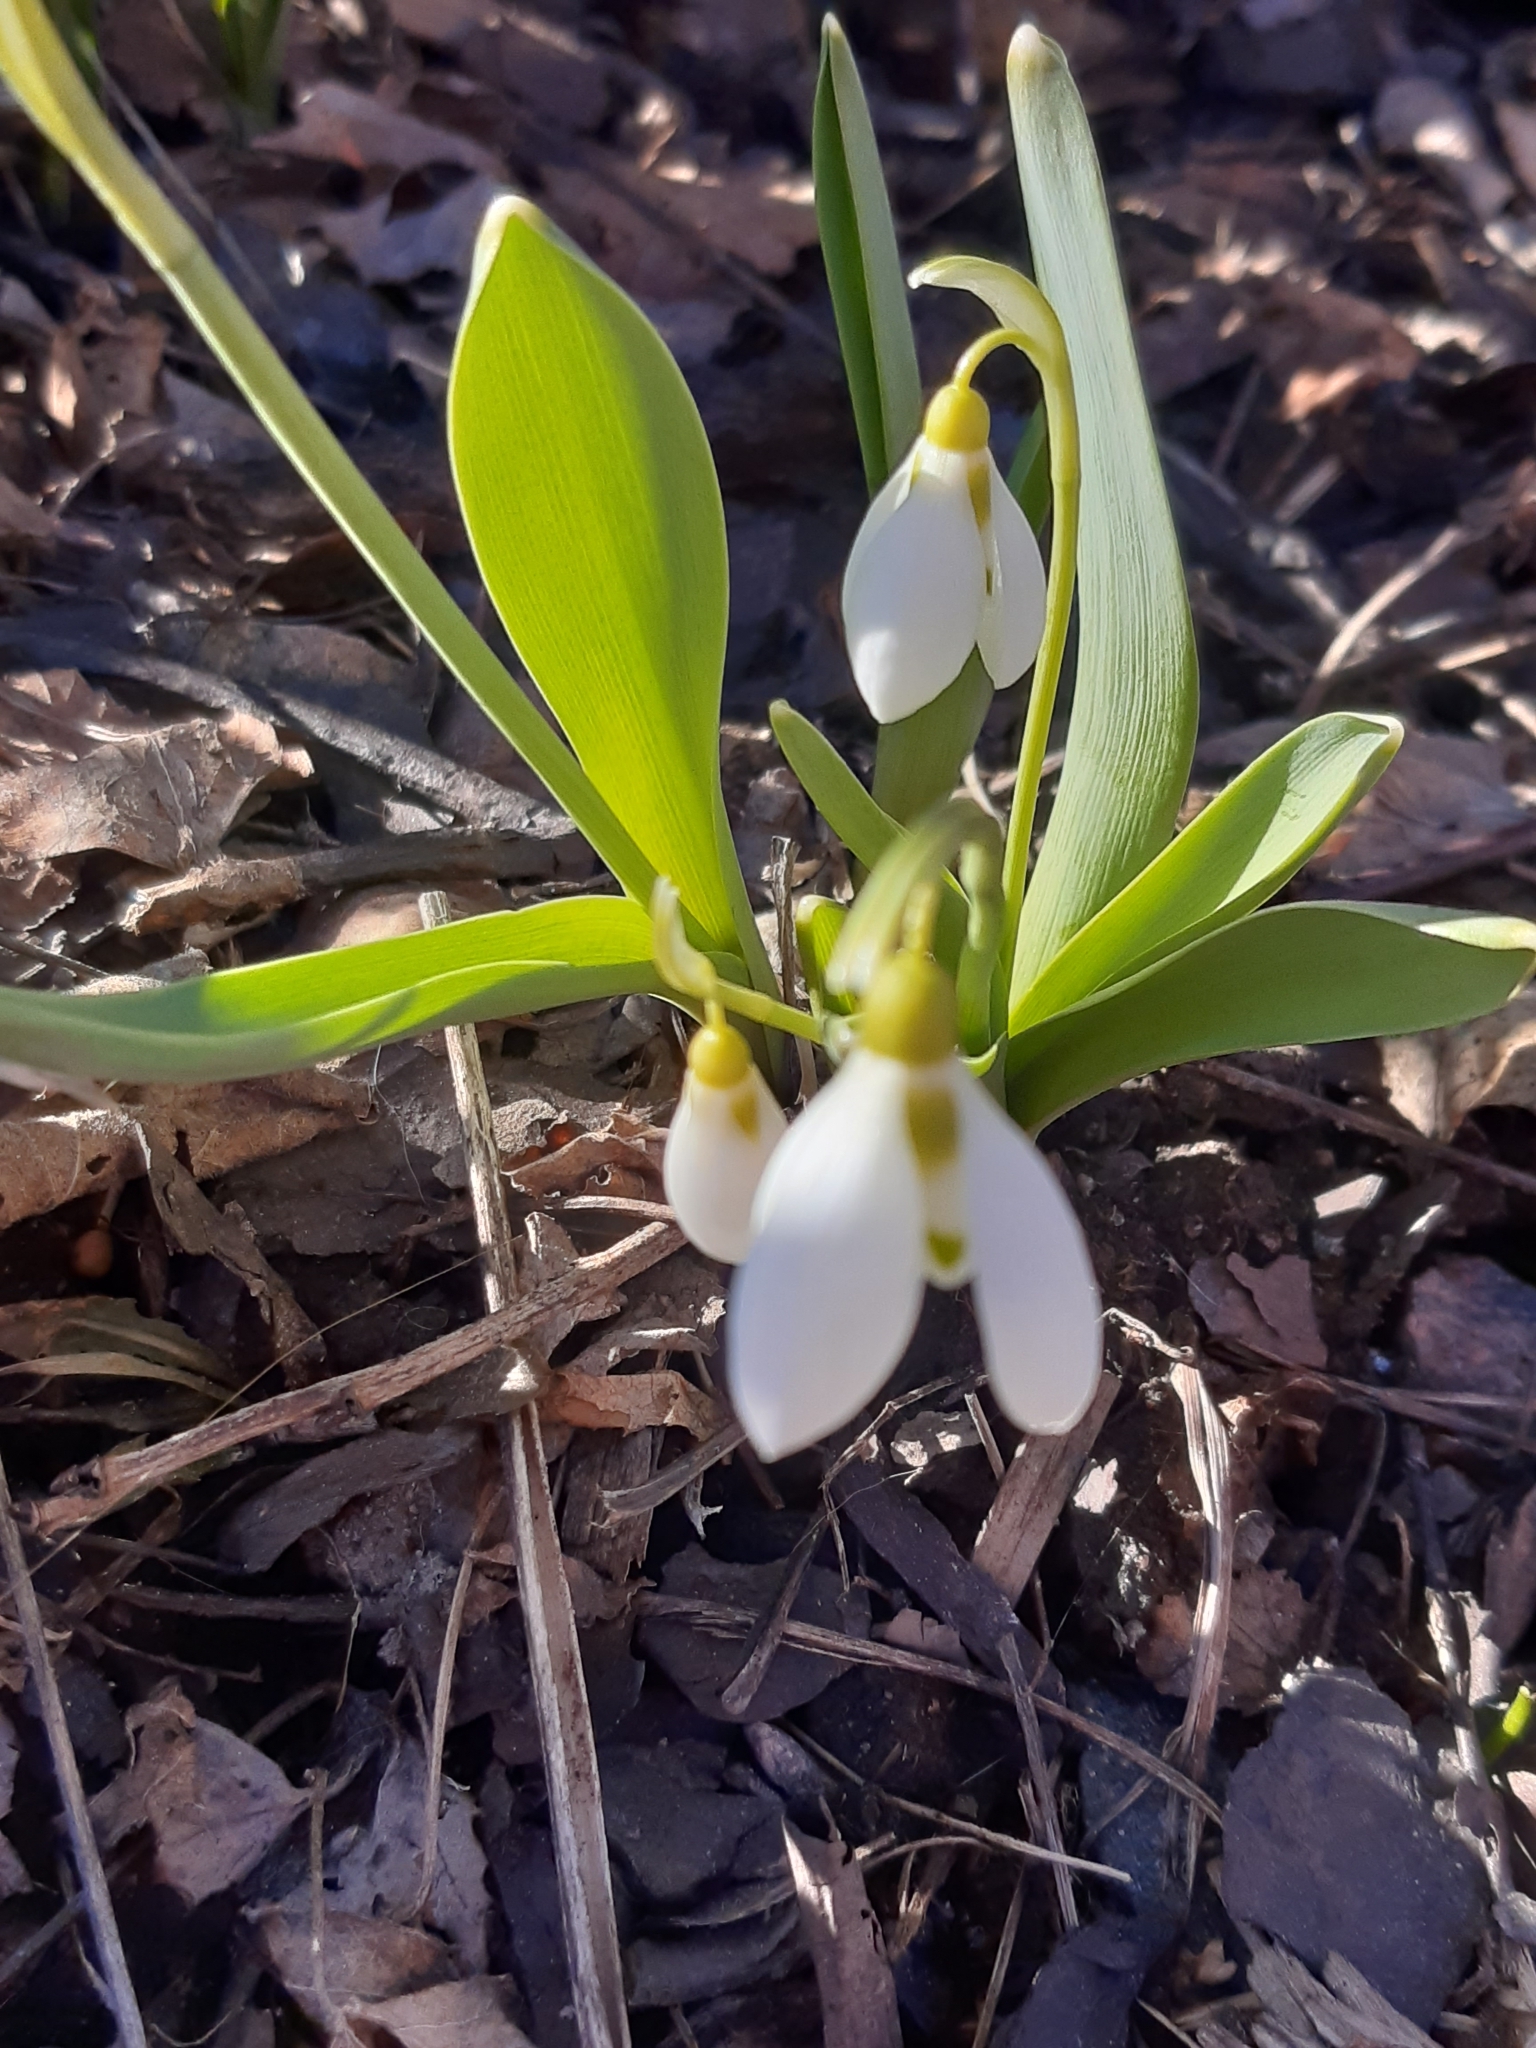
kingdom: Plantae
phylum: Tracheophyta
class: Liliopsida
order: Asparagales
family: Amaryllidaceae
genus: Galanthus
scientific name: Galanthus elwesii
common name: Greater snowdrop
